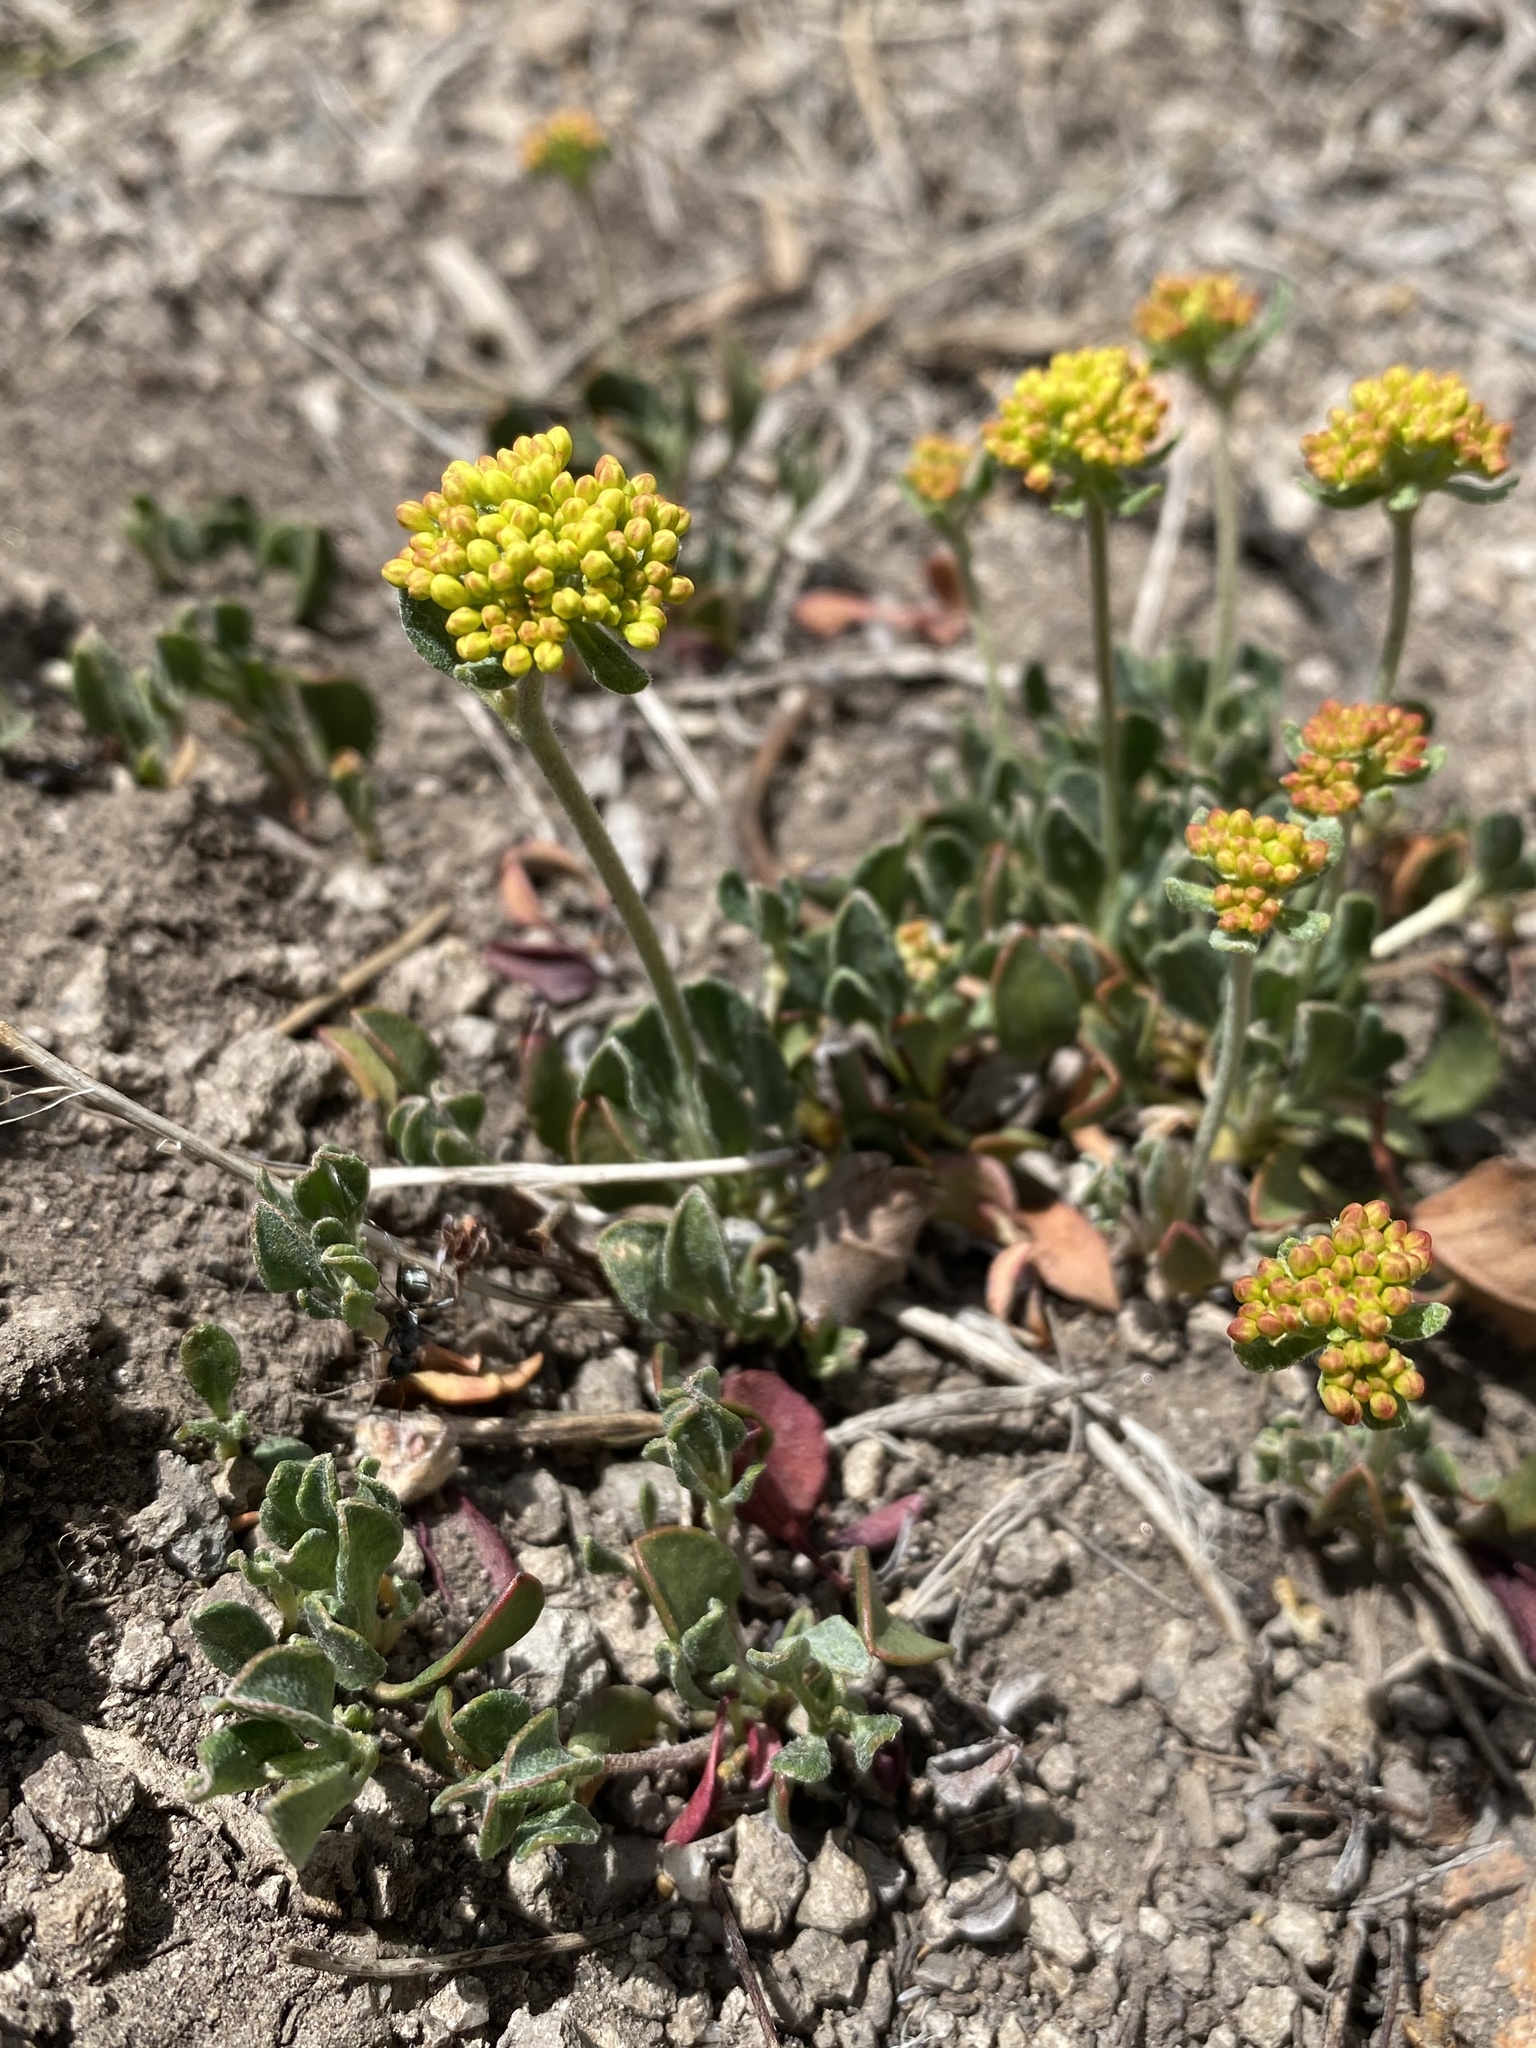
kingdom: Plantae
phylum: Tracheophyta
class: Magnoliopsida
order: Caryophyllales
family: Polygonaceae
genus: Eriogonum
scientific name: Eriogonum umbellatum
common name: Sulfur-buckwheat
